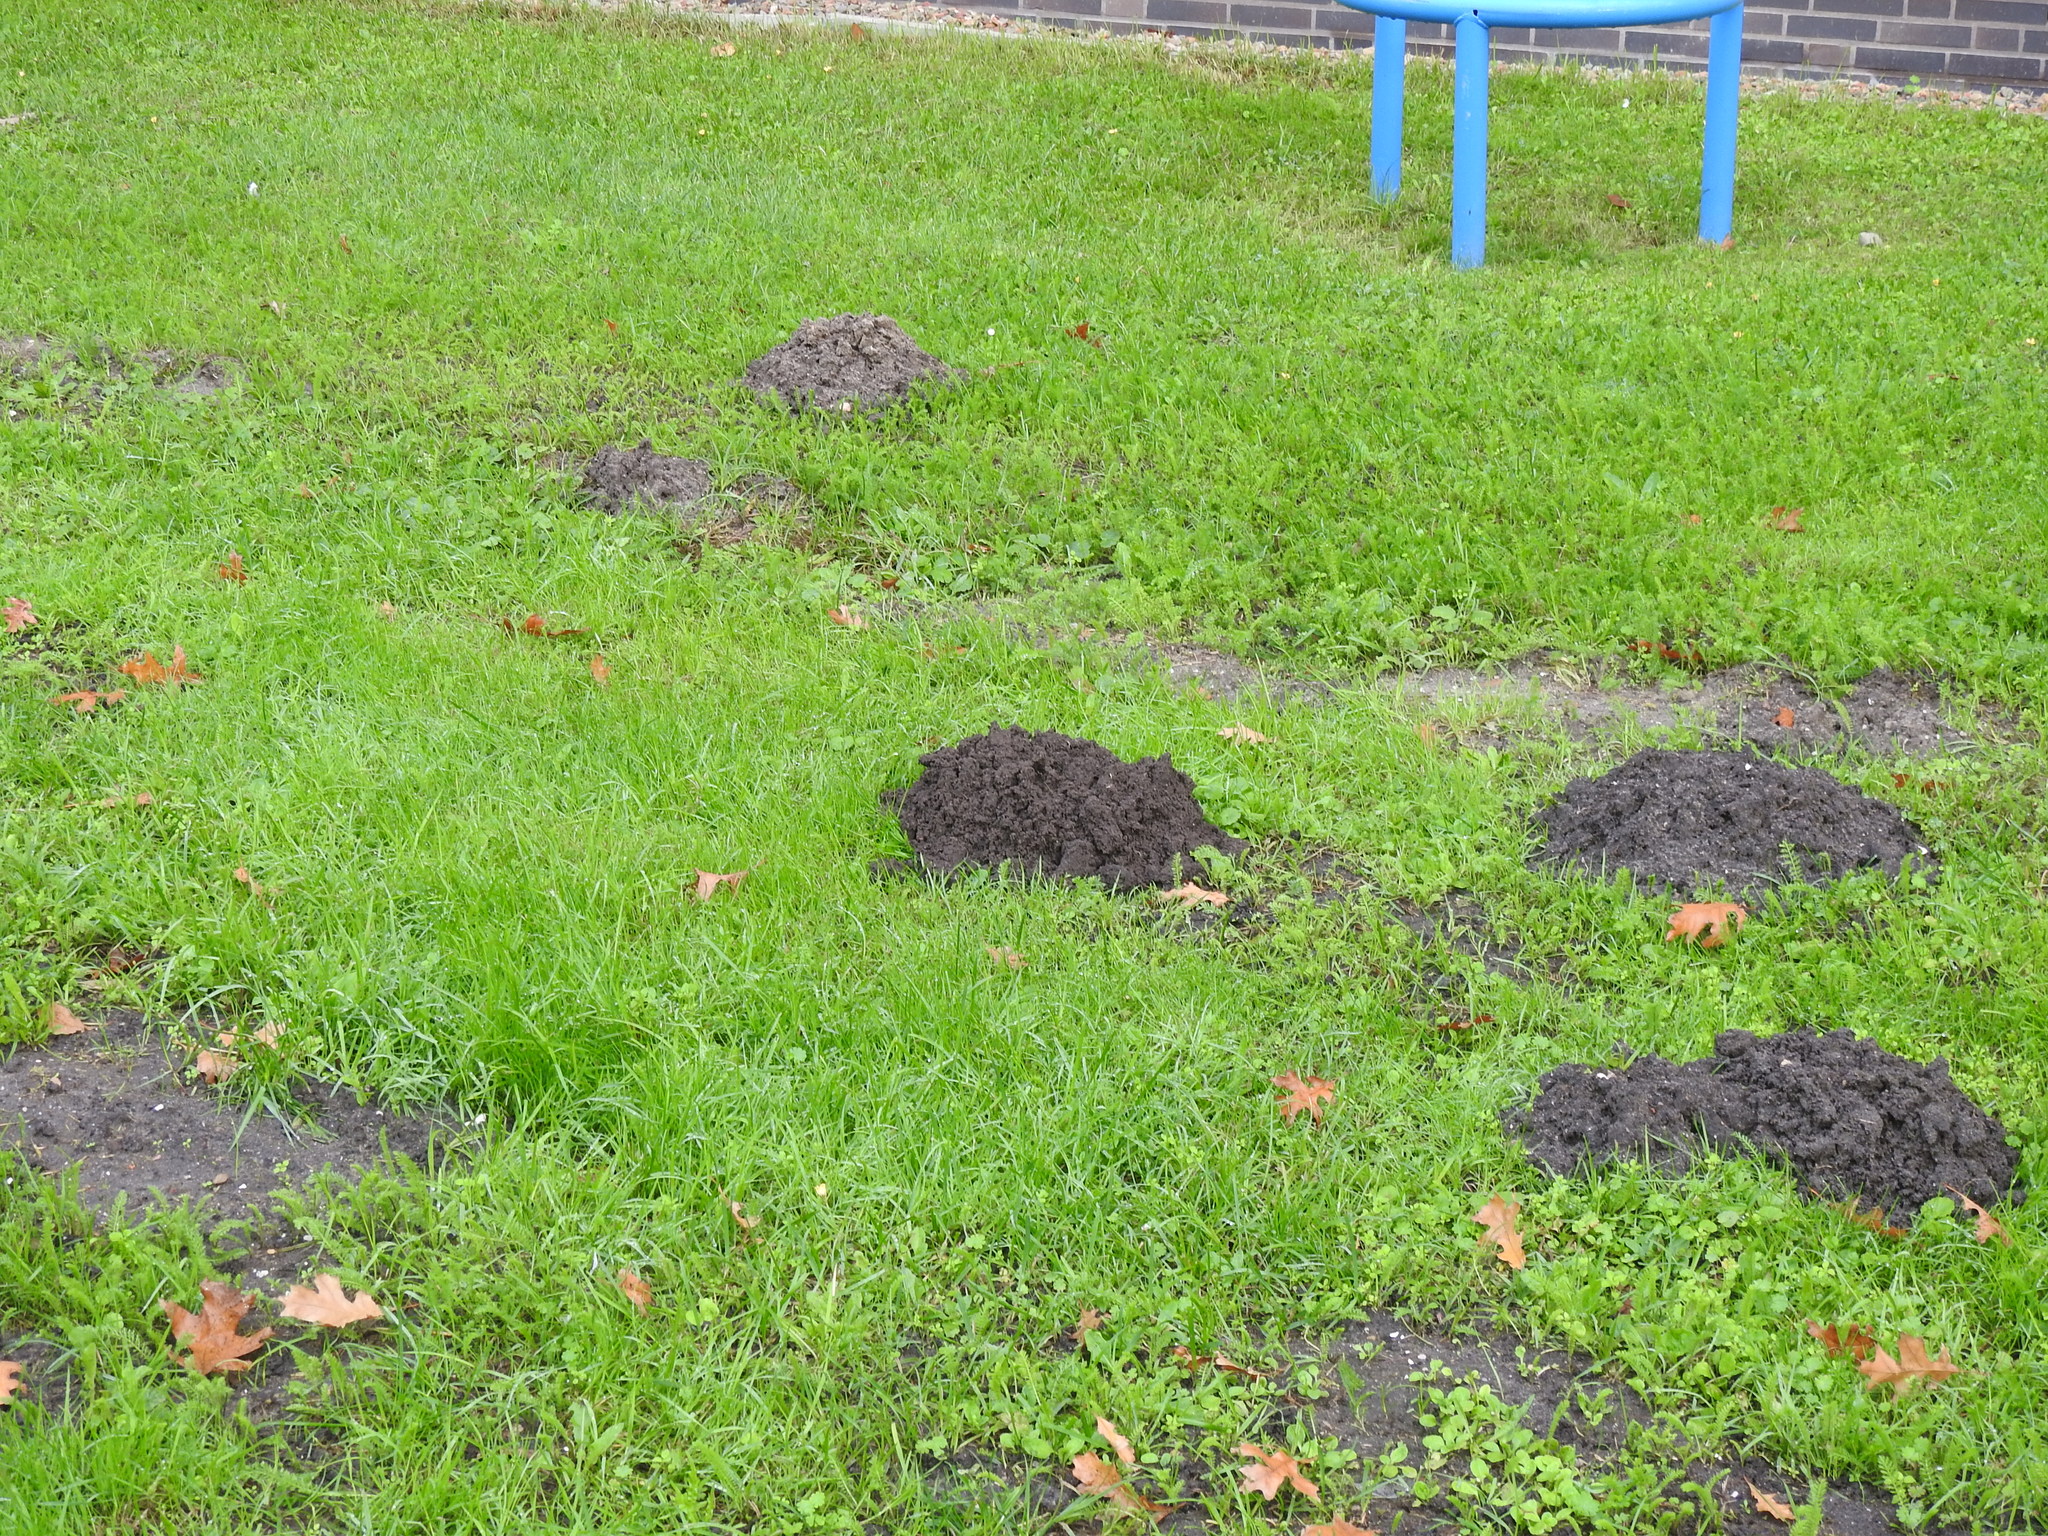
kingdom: Animalia
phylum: Chordata
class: Mammalia
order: Soricomorpha
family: Talpidae
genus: Talpa
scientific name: Talpa europaea
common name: European mole
